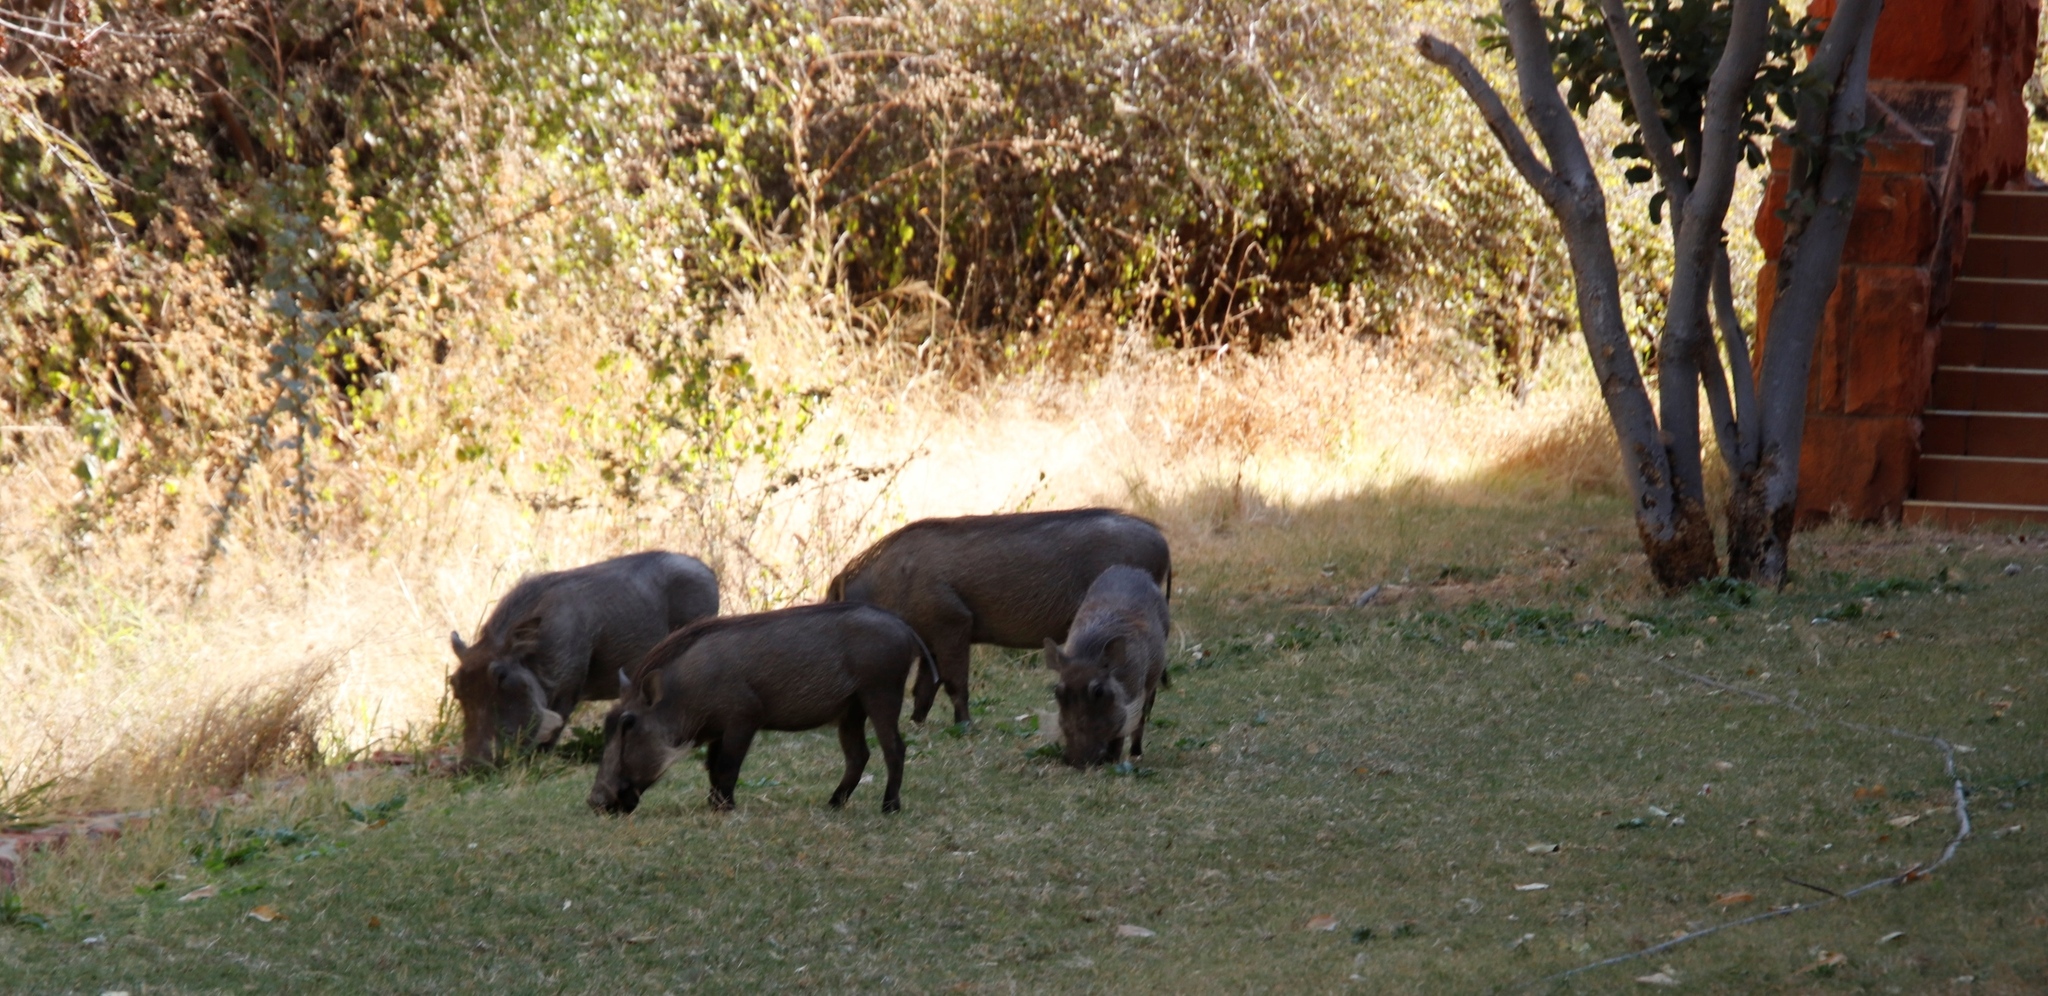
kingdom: Animalia
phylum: Chordata
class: Mammalia
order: Artiodactyla
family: Suidae
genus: Phacochoerus
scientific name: Phacochoerus africanus
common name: Common warthog
